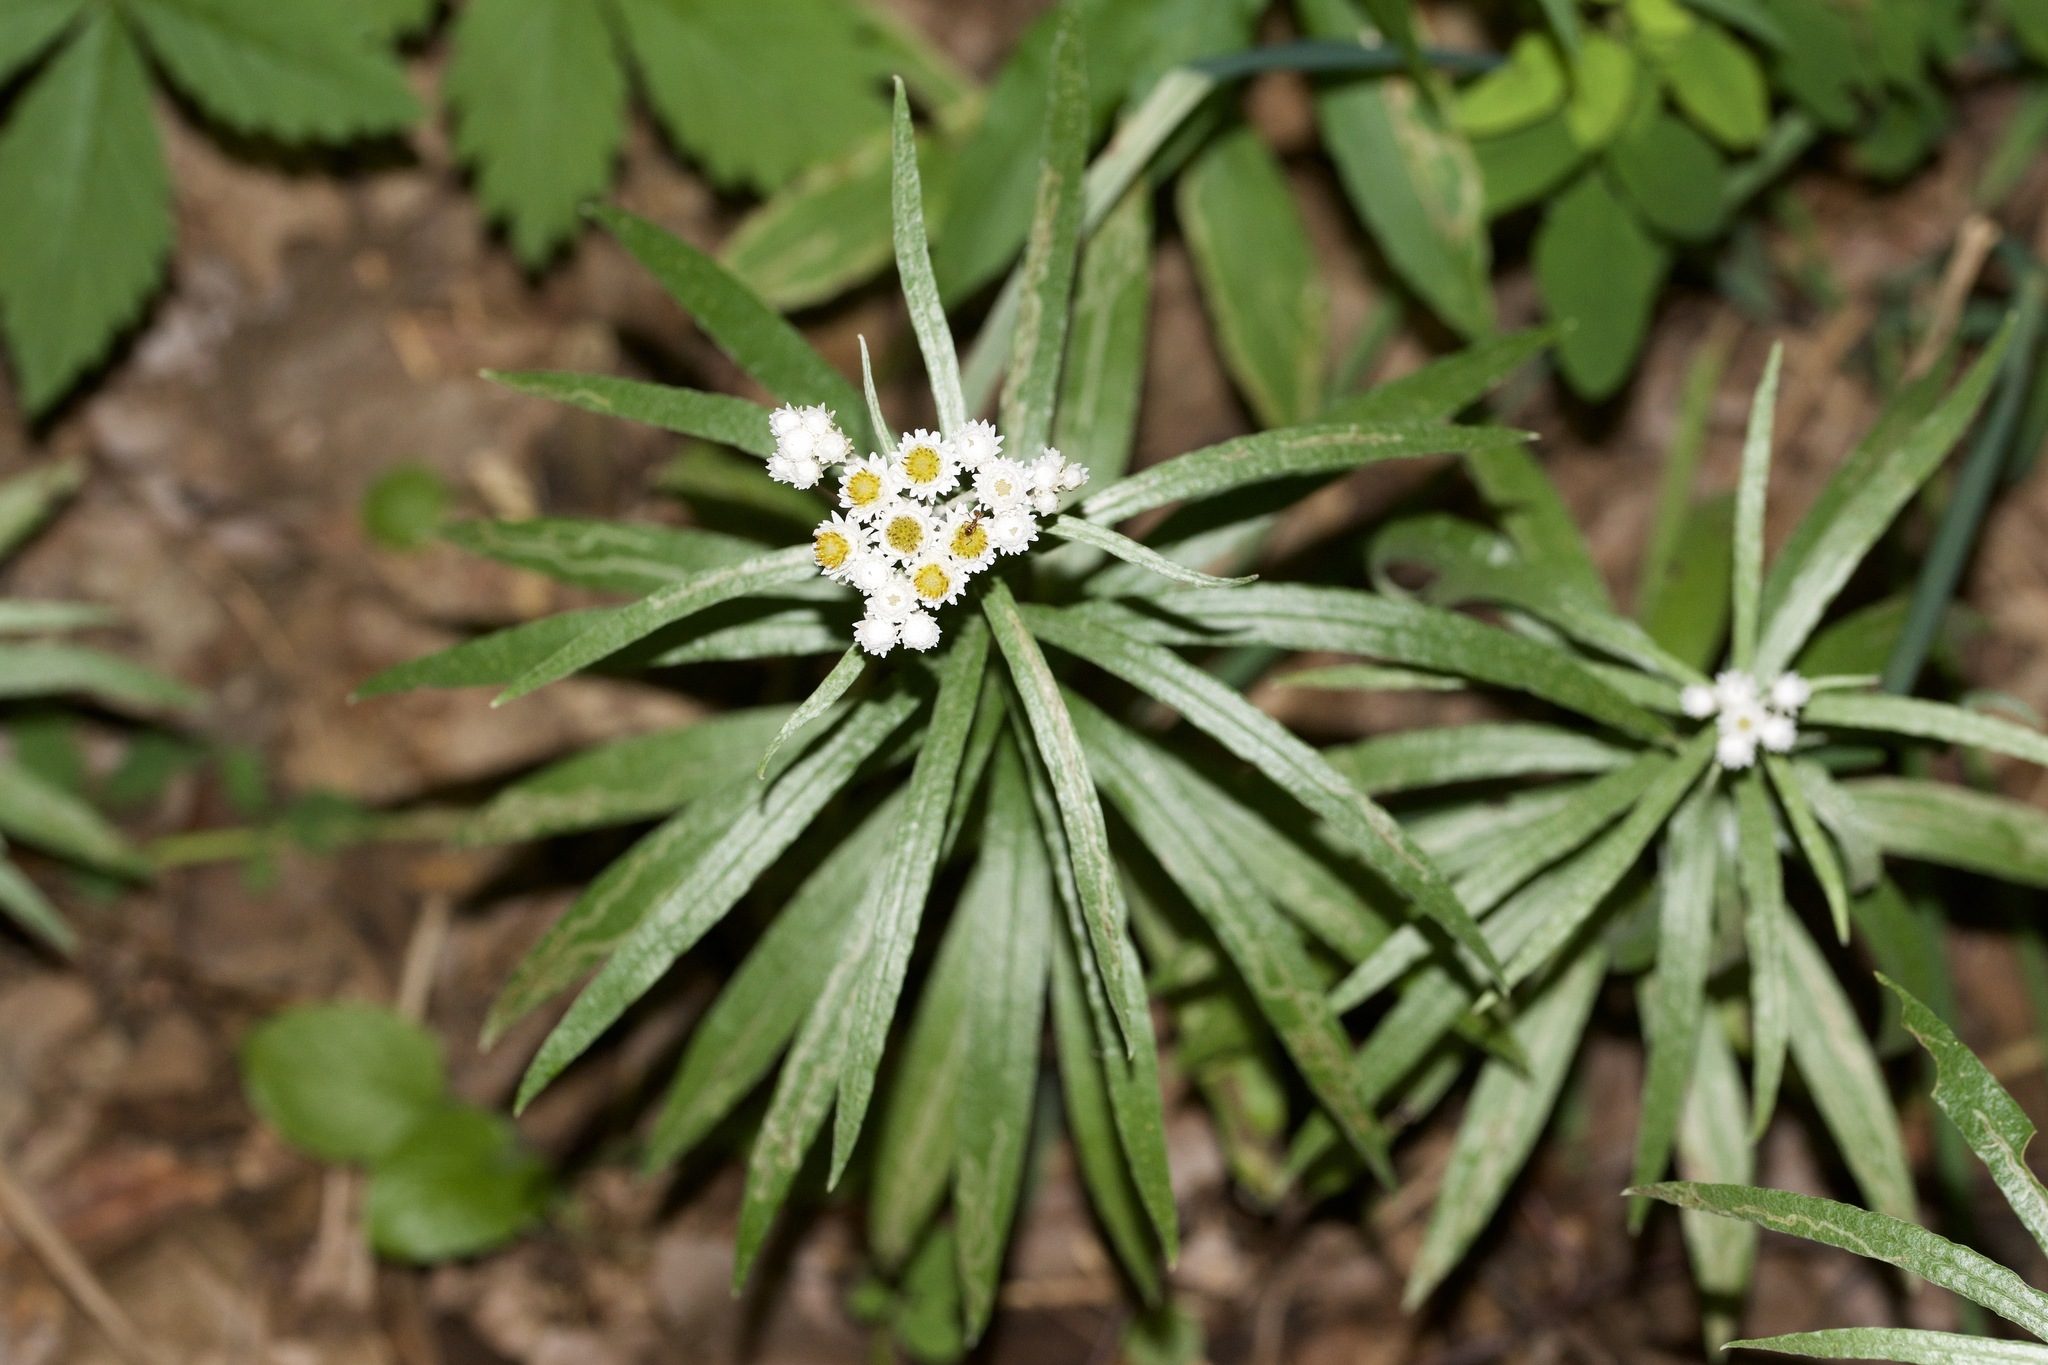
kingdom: Plantae
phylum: Tracheophyta
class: Magnoliopsida
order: Asterales
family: Asteraceae
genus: Anaphalis
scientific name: Anaphalis margaritacea
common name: Pearly everlasting
